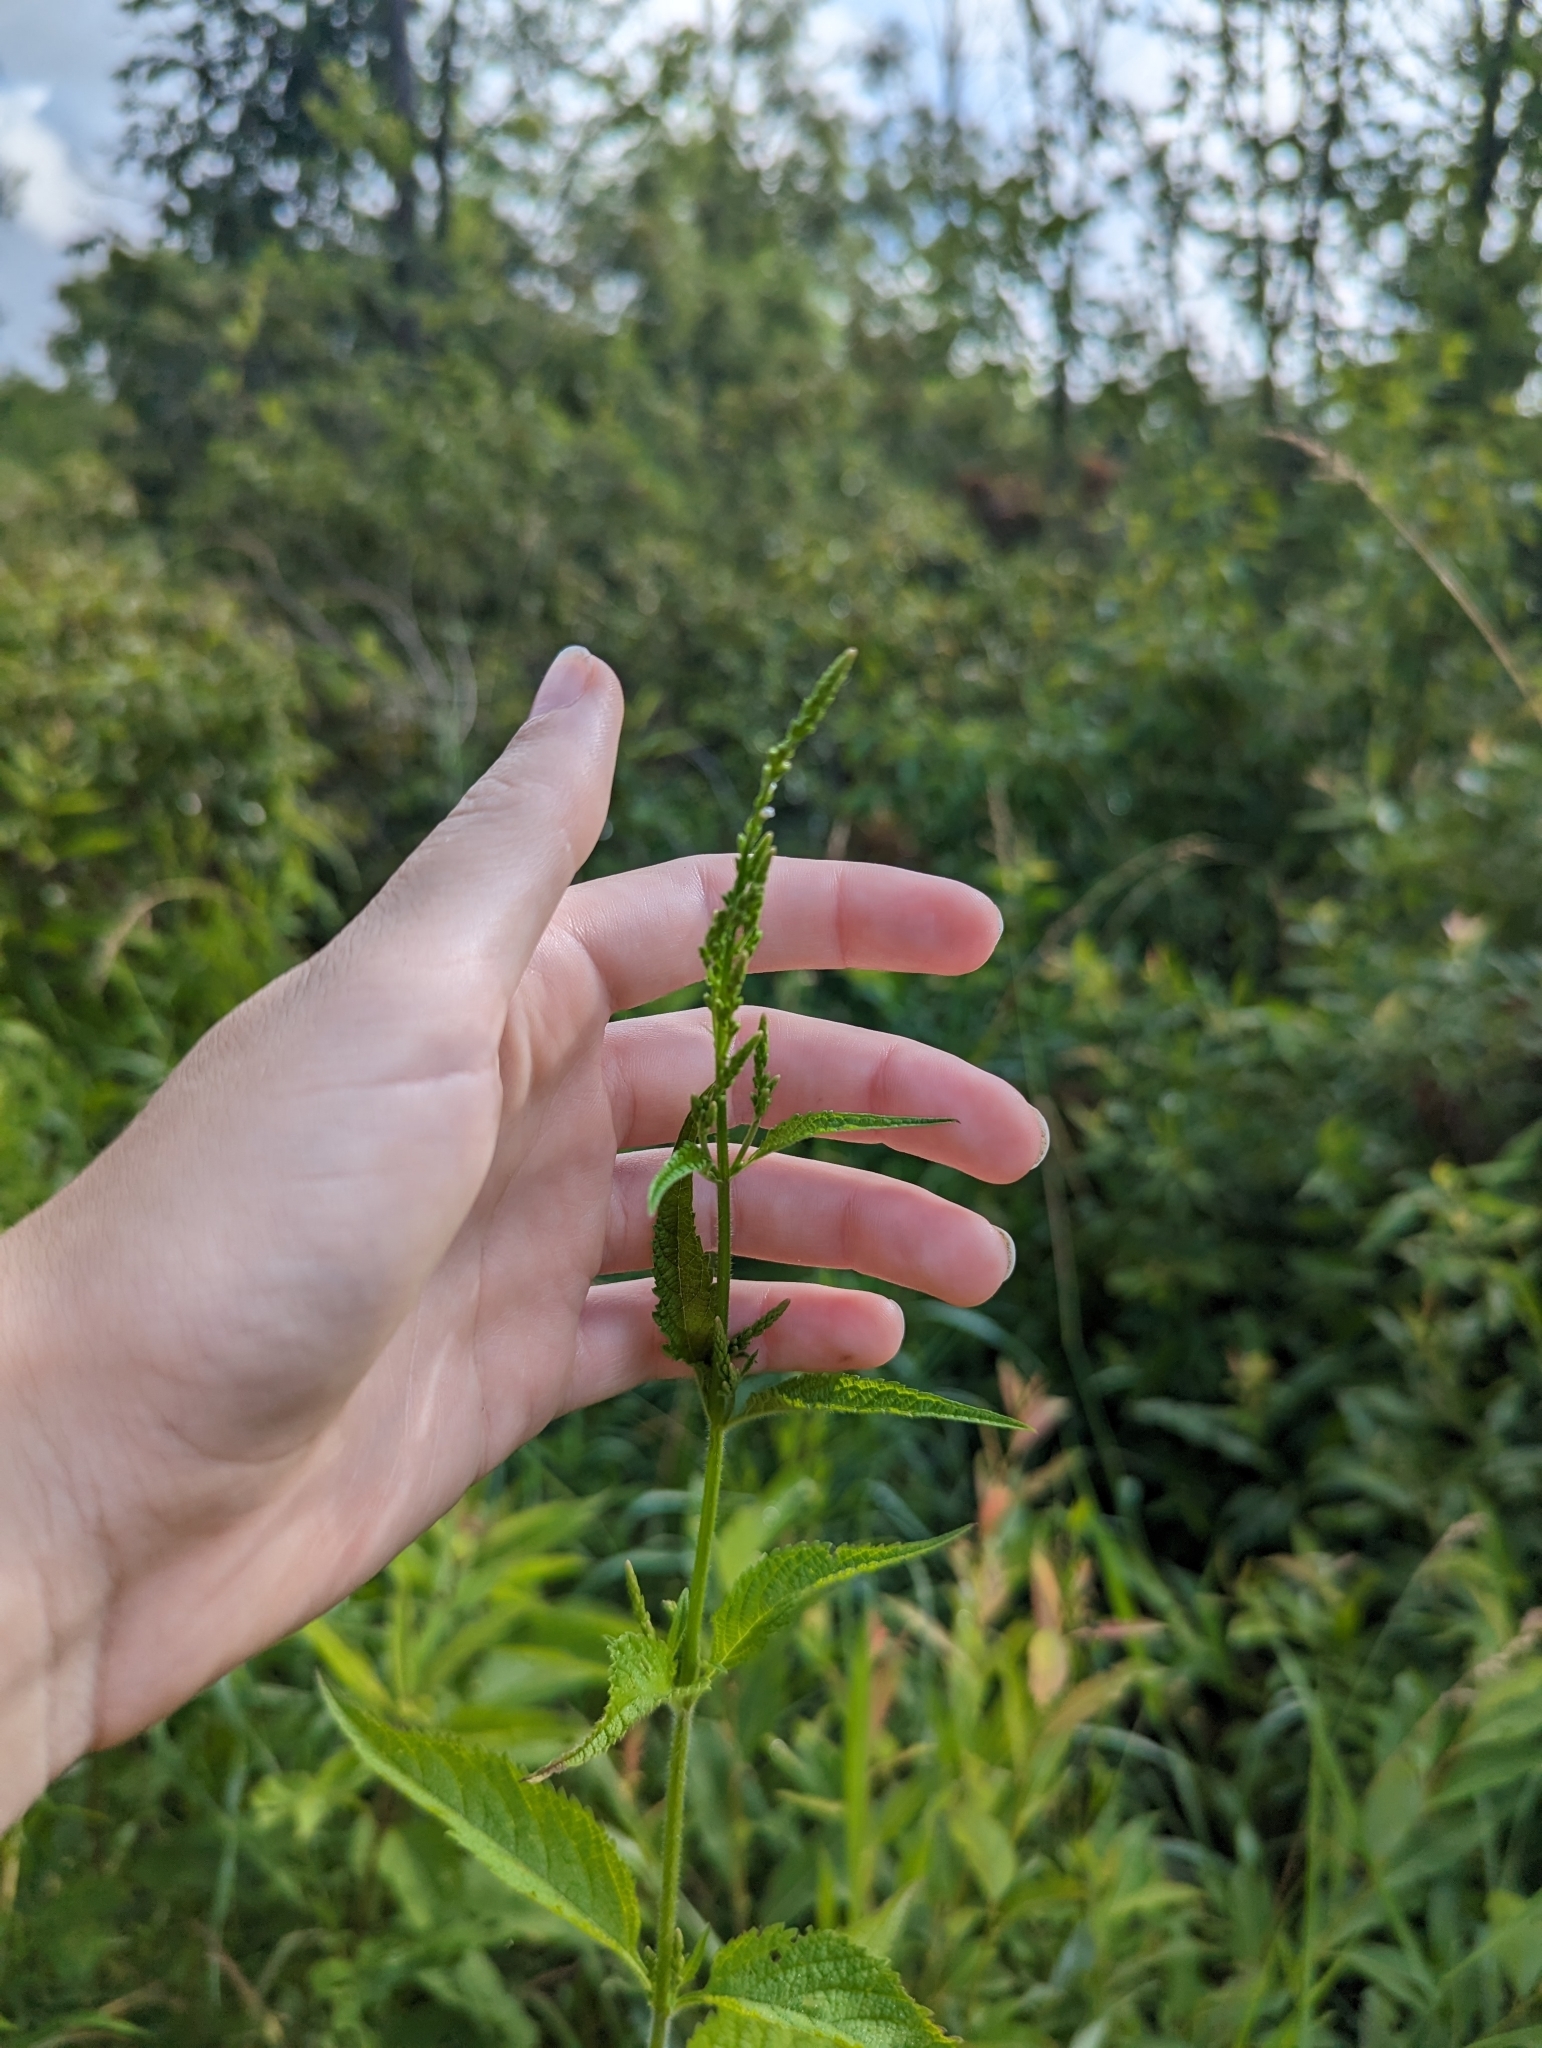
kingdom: Plantae
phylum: Tracheophyta
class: Magnoliopsida
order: Lamiales
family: Verbenaceae
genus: Verbena
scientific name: Verbena urticifolia
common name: Nettle-leaved vervain
